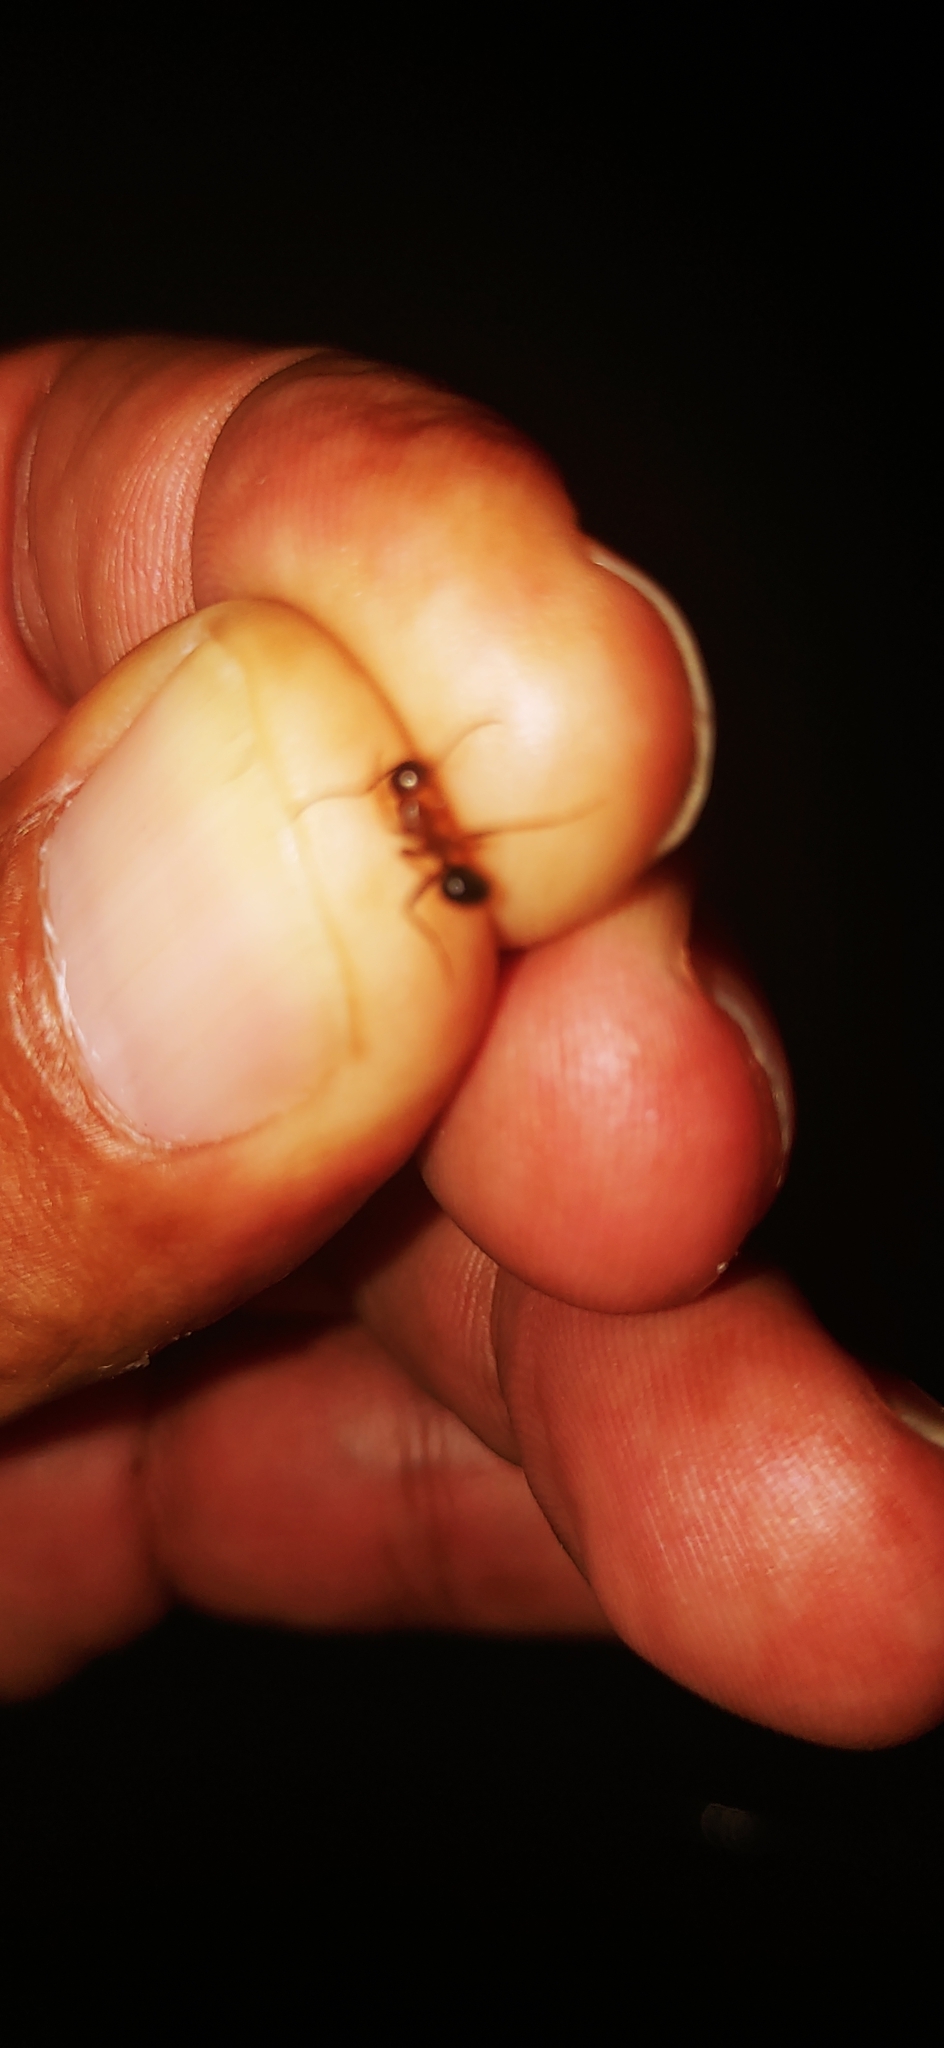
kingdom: Animalia
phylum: Arthropoda
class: Insecta
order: Hymenoptera
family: Formicidae
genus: Camponotus
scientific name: Camponotus floridanus
